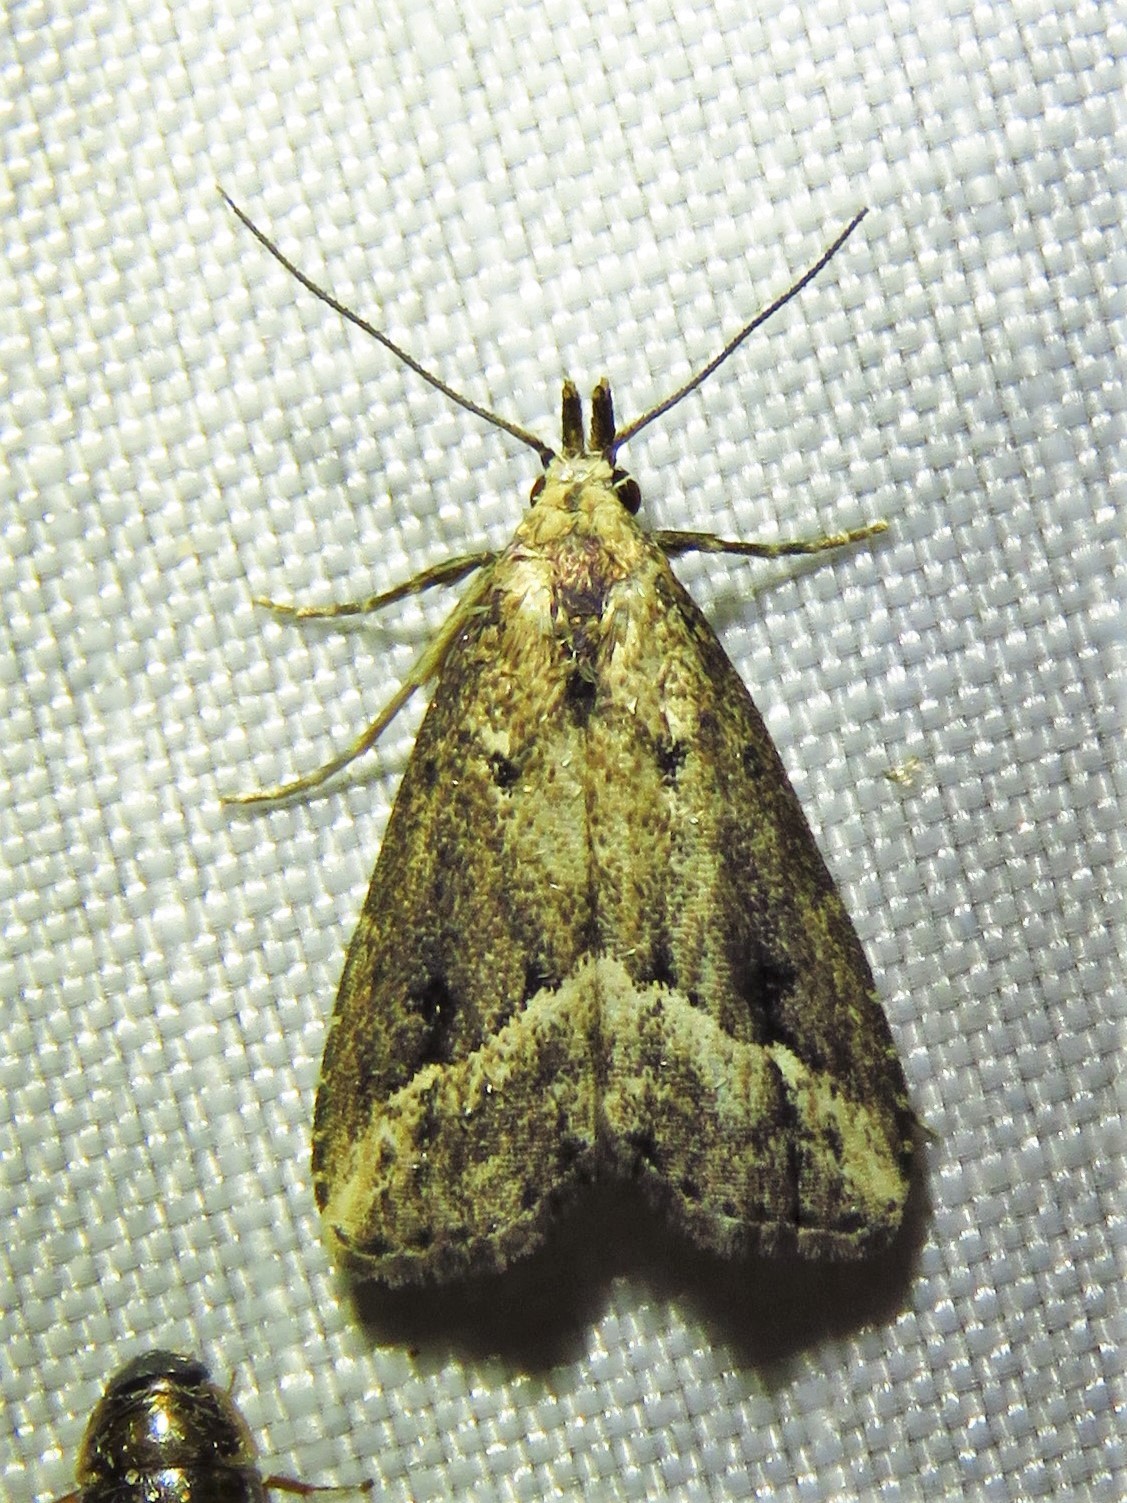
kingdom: Animalia
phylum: Arthropoda
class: Insecta
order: Lepidoptera
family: Erebidae
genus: Schrankia
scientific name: Schrankia
